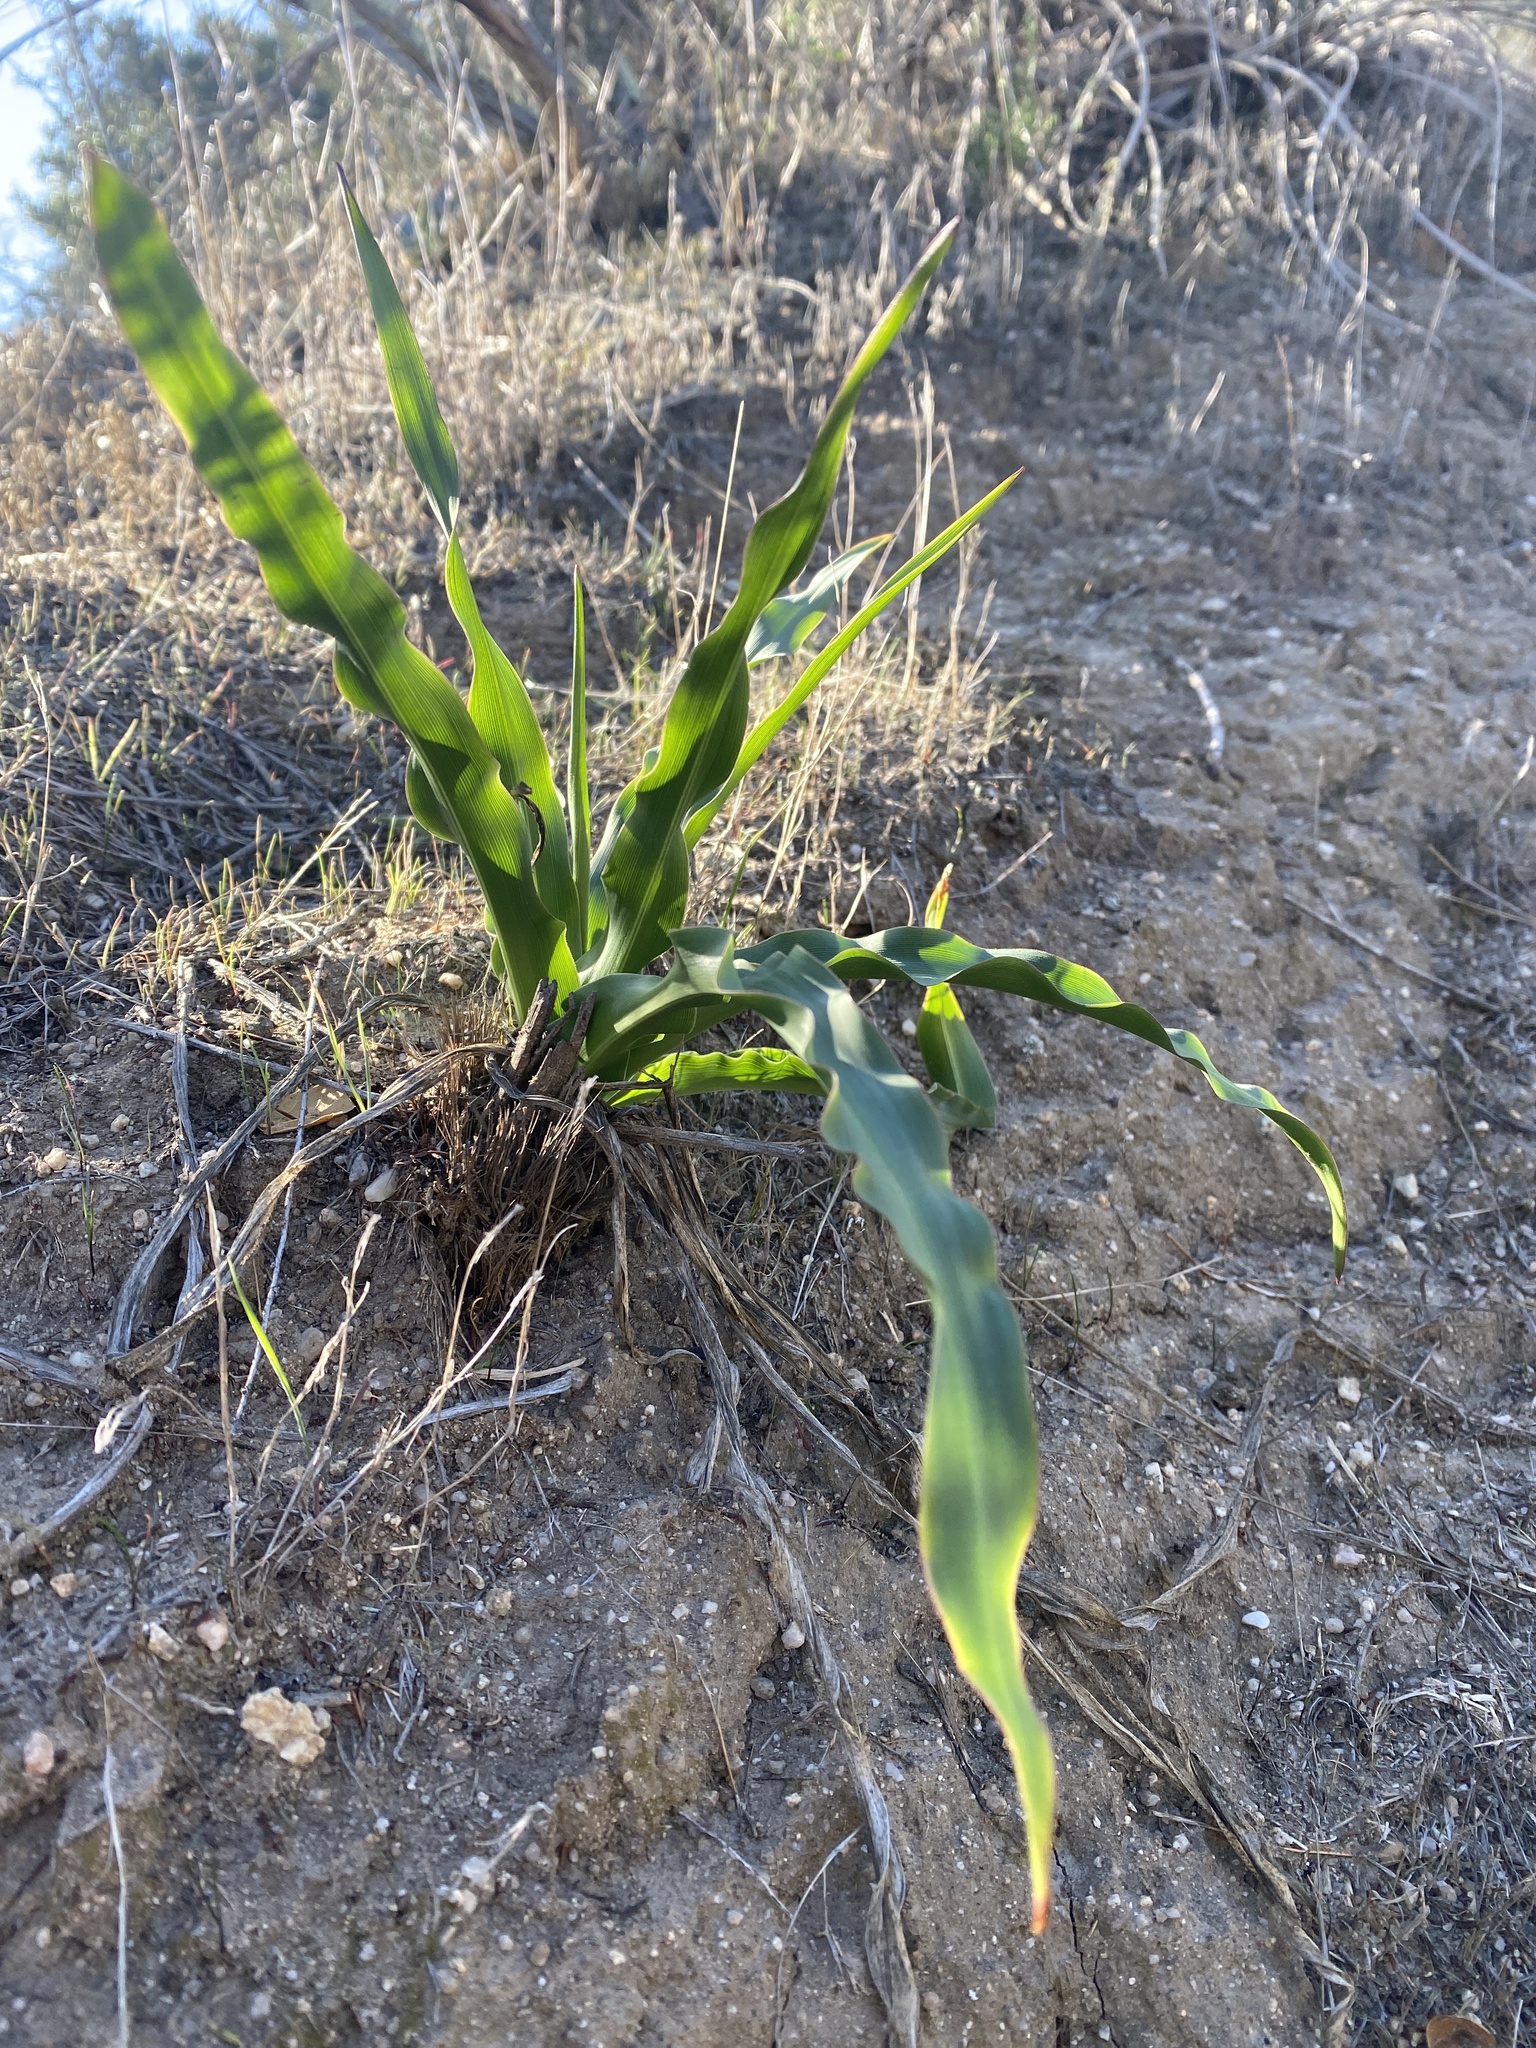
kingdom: Plantae
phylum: Tracheophyta
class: Liliopsida
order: Asparagales
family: Asparagaceae
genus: Chlorogalum
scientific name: Chlorogalum pomeridianum
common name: Amole
